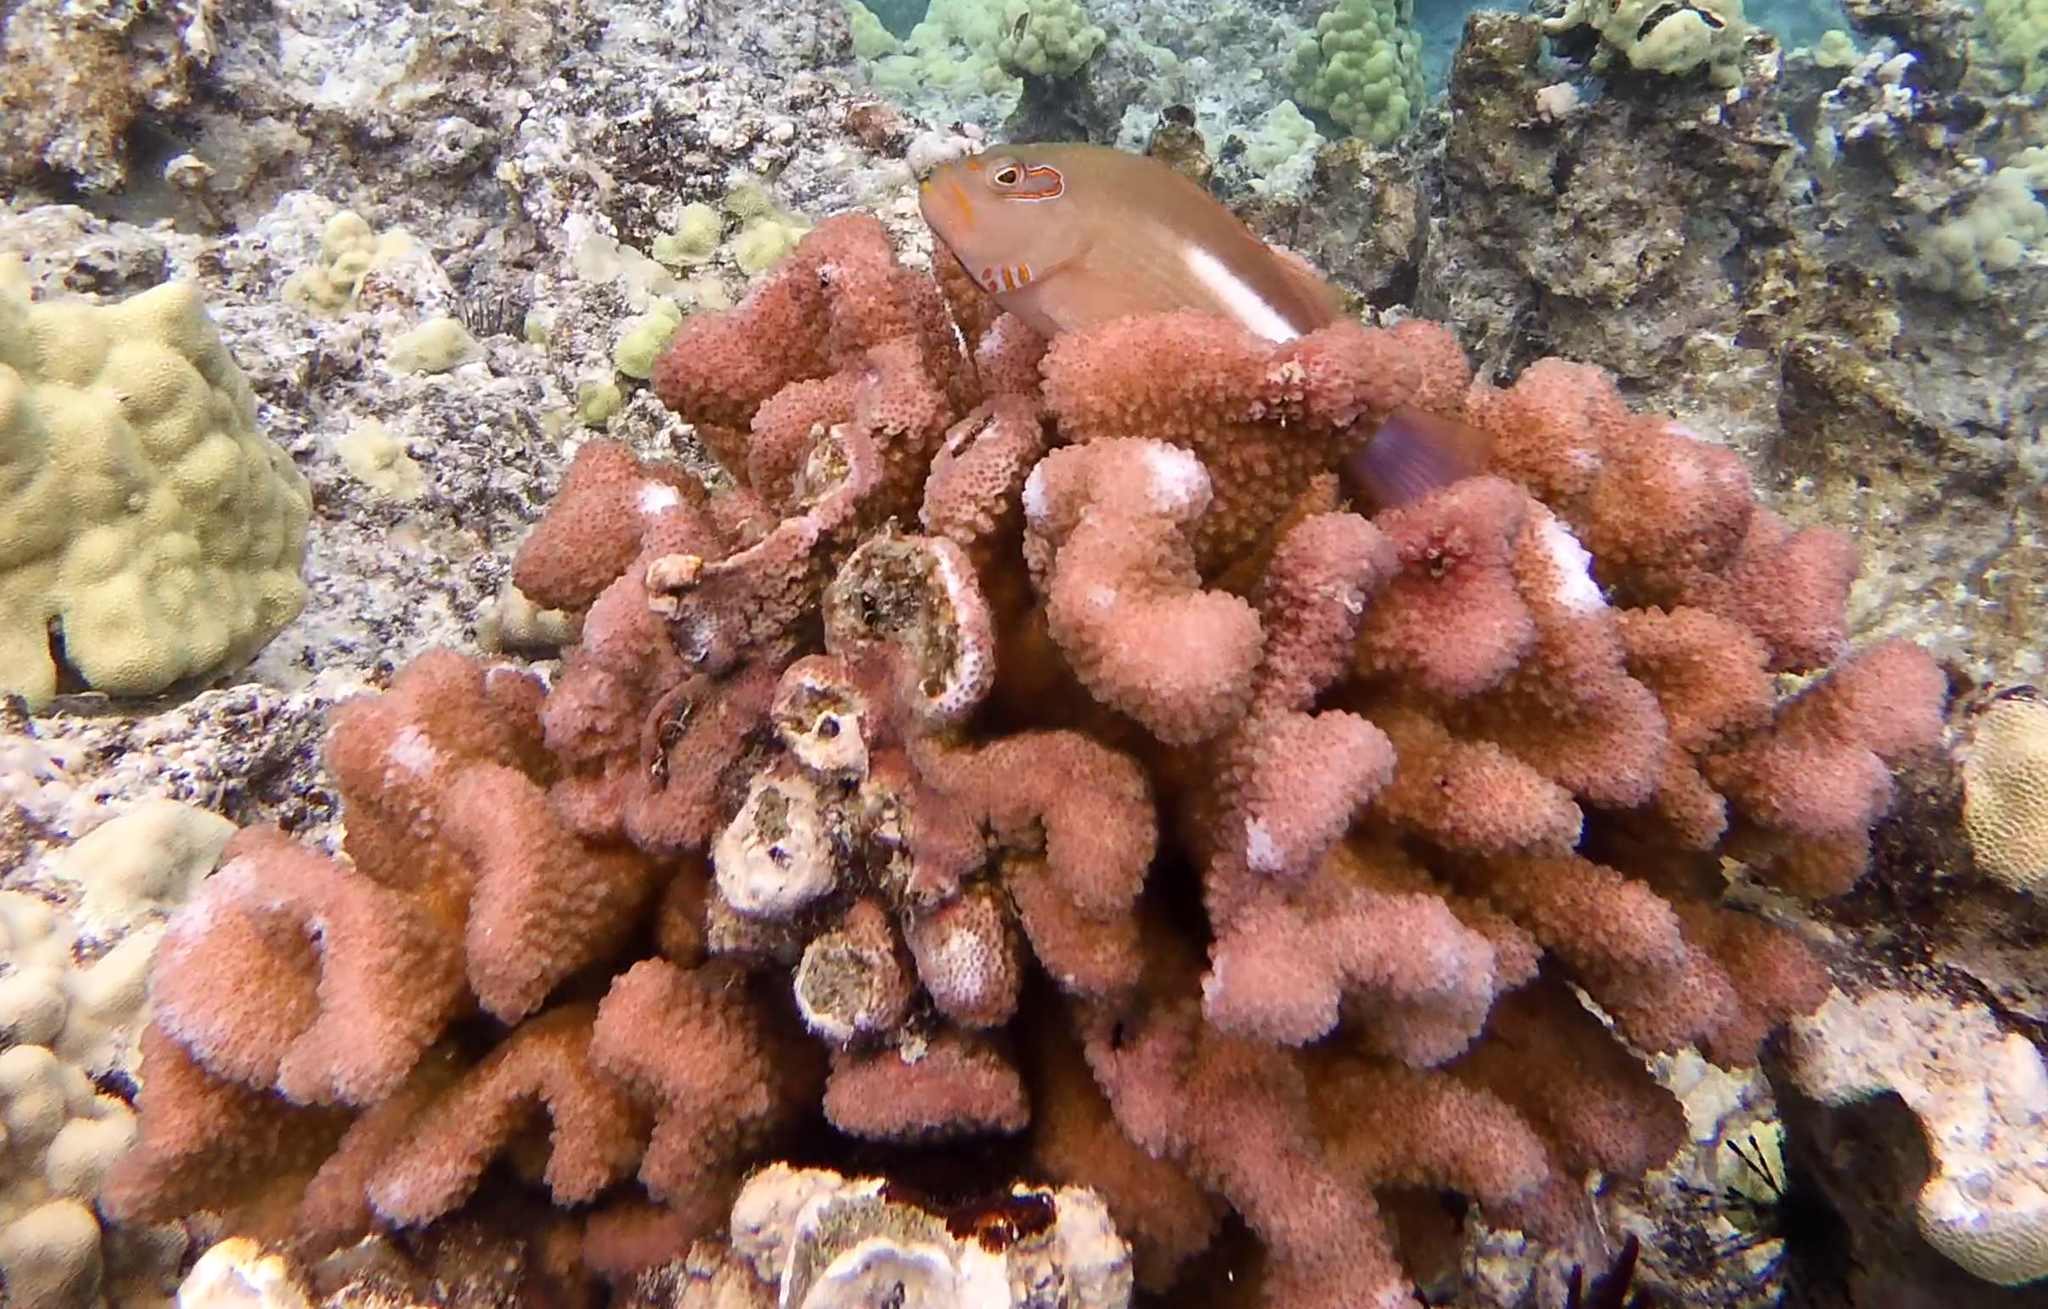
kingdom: Animalia
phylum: Chordata
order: Perciformes
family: Cirrhitidae
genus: Paracirrhites
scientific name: Paracirrhites arcatus
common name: Arc-eye hawkfish
